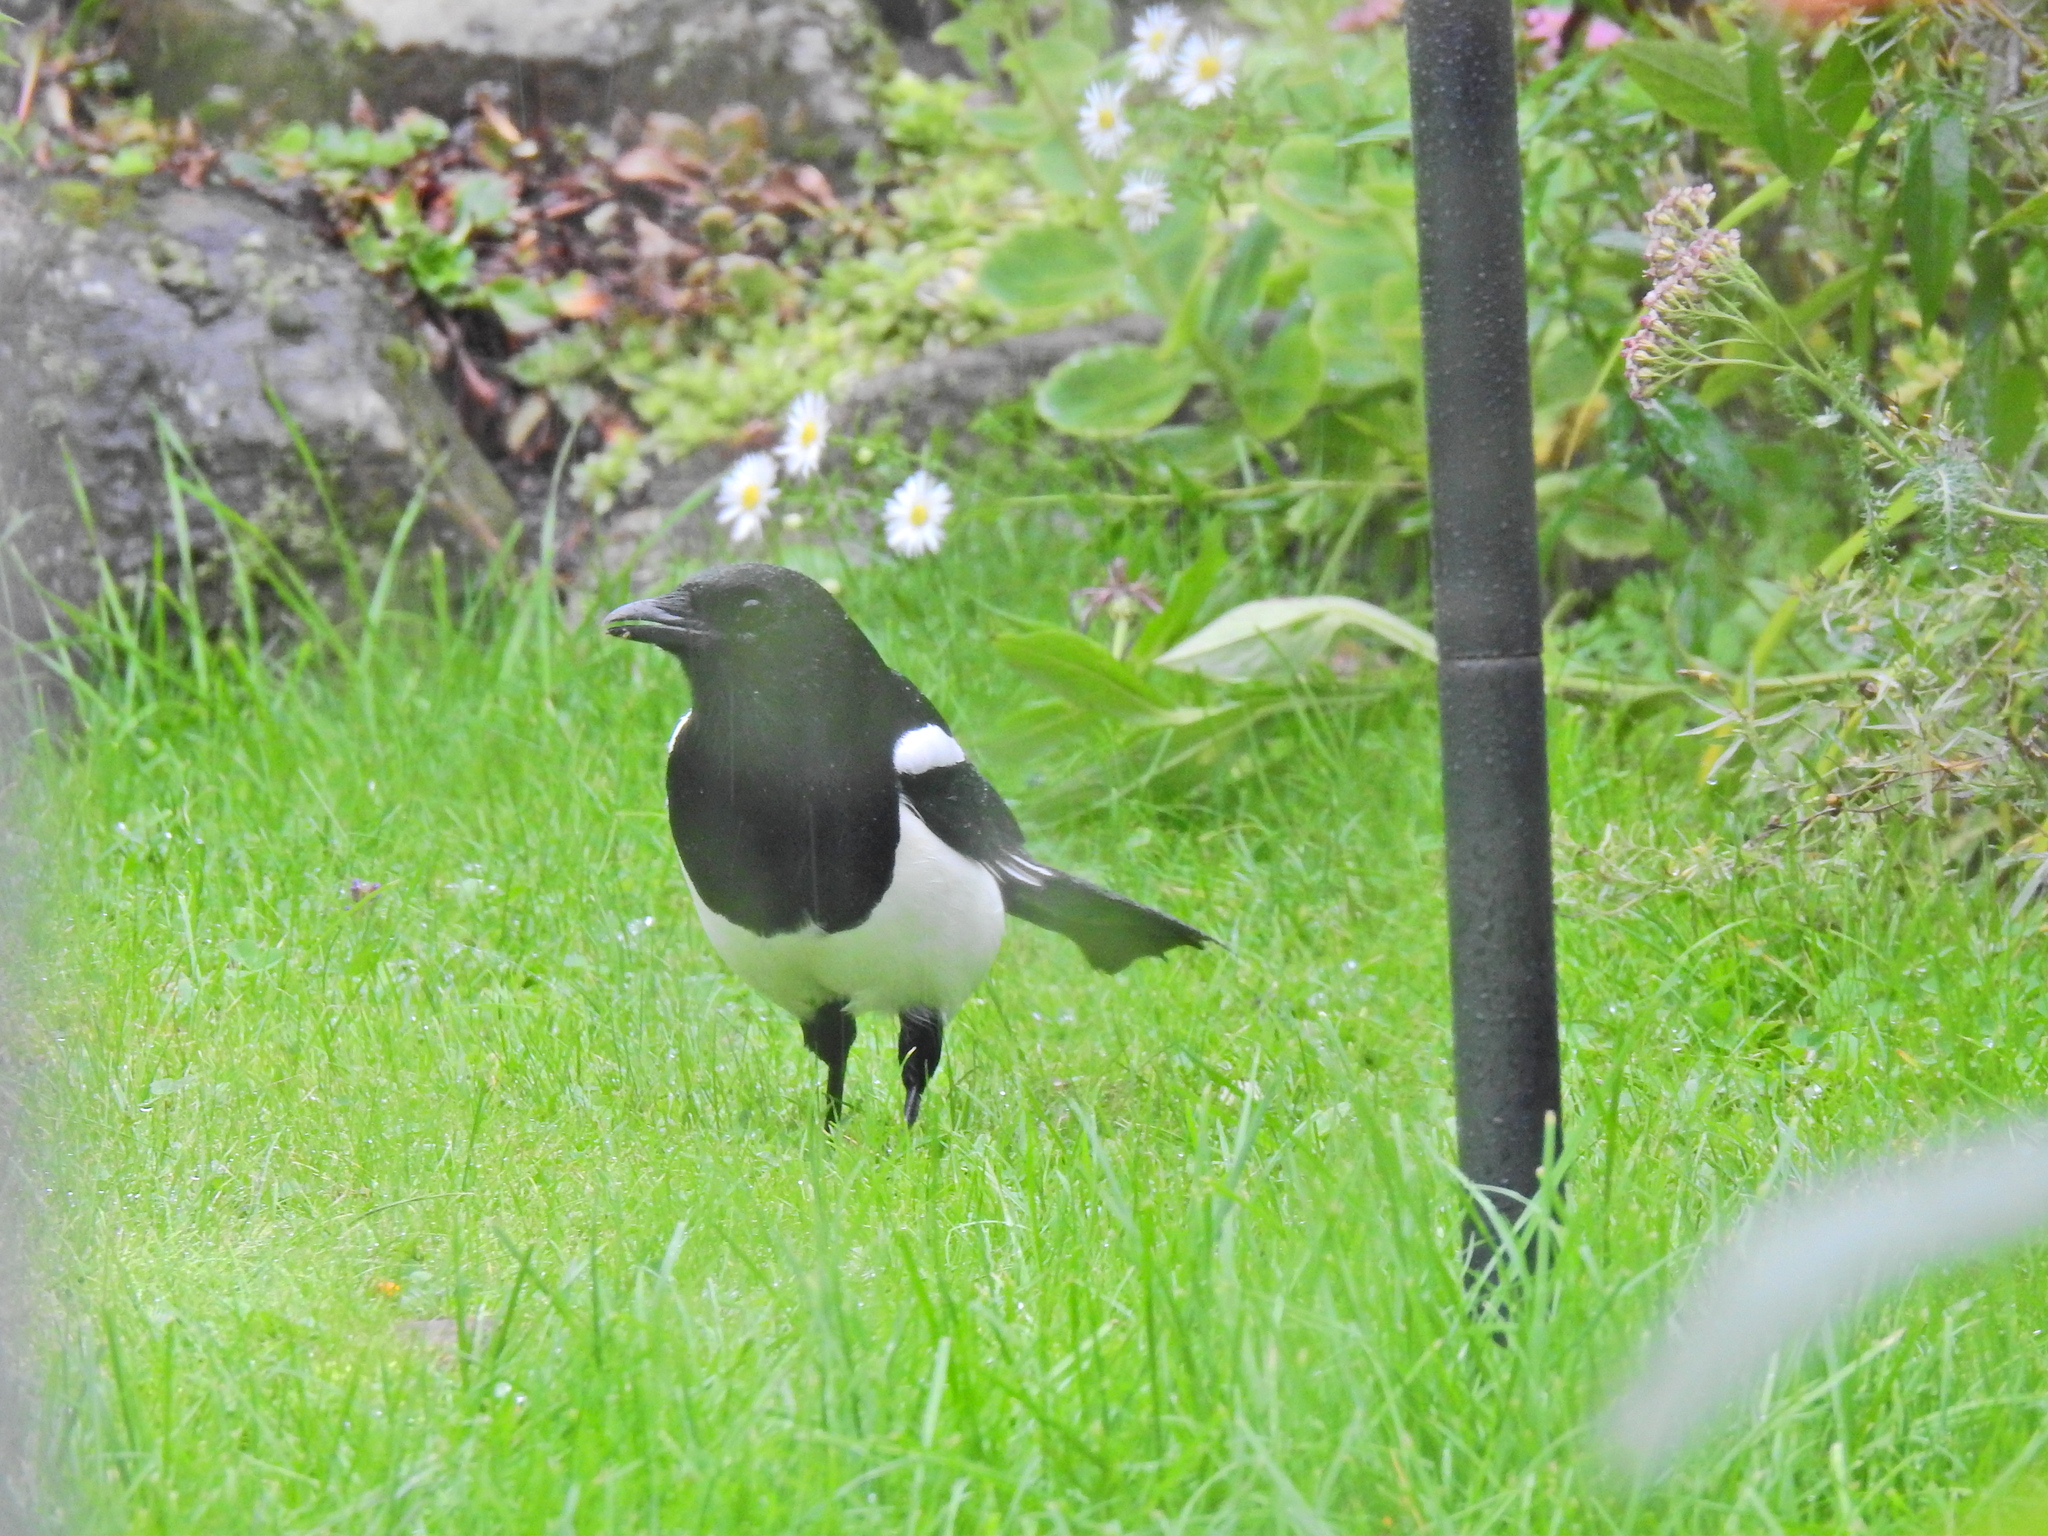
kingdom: Animalia
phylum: Chordata
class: Aves
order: Passeriformes
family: Corvidae
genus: Pica
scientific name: Pica pica
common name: Eurasian magpie
